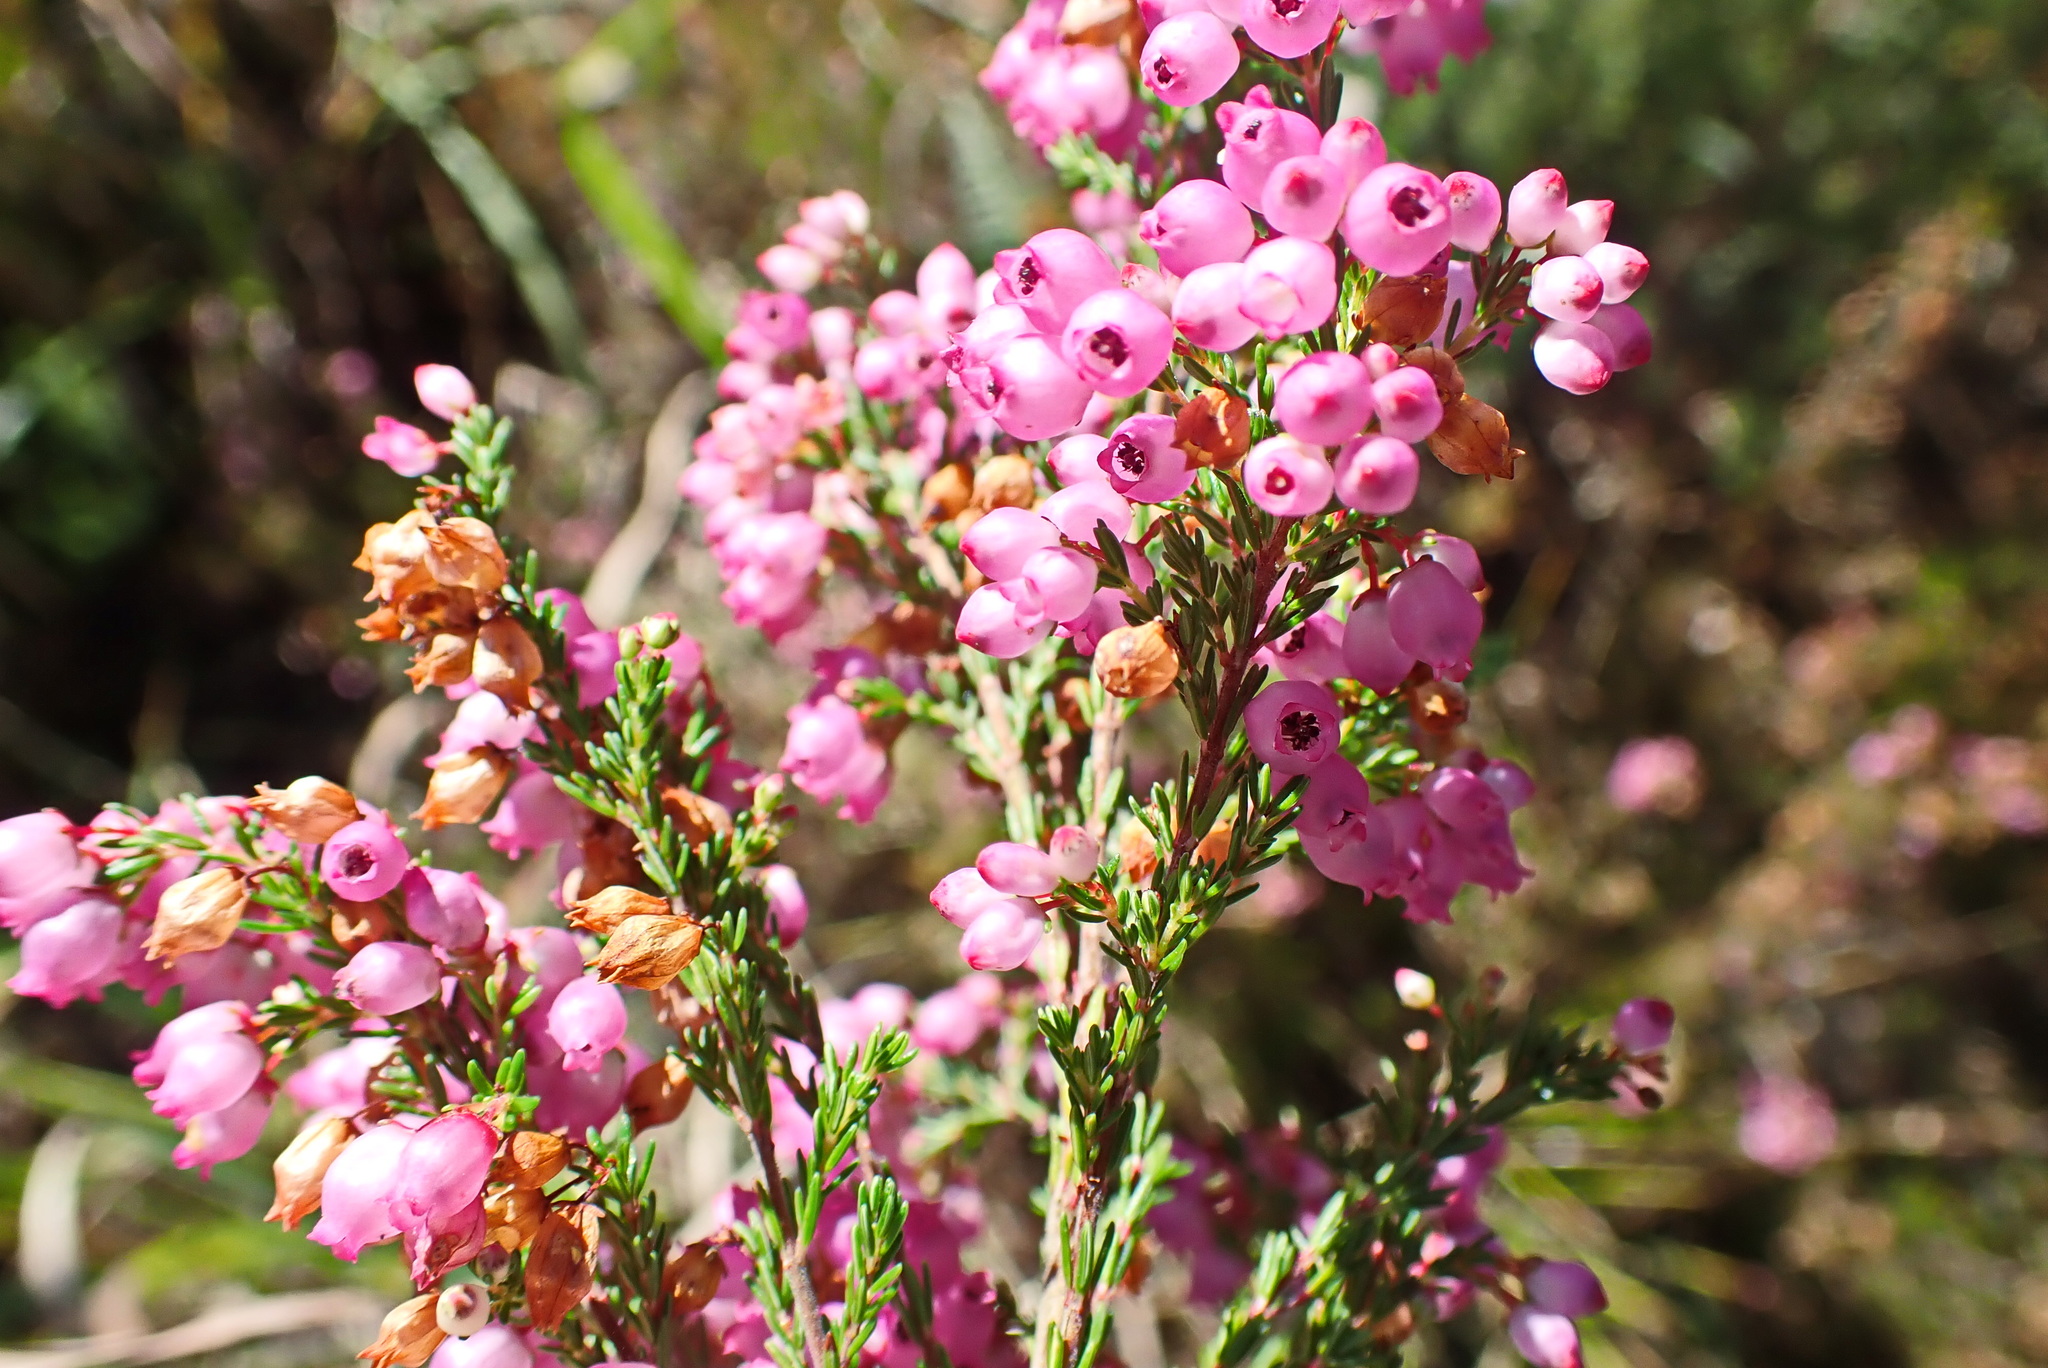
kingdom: Plantae
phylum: Tracheophyta
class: Magnoliopsida
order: Ericales
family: Ericaceae
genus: Erica
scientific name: Erica gracilis
